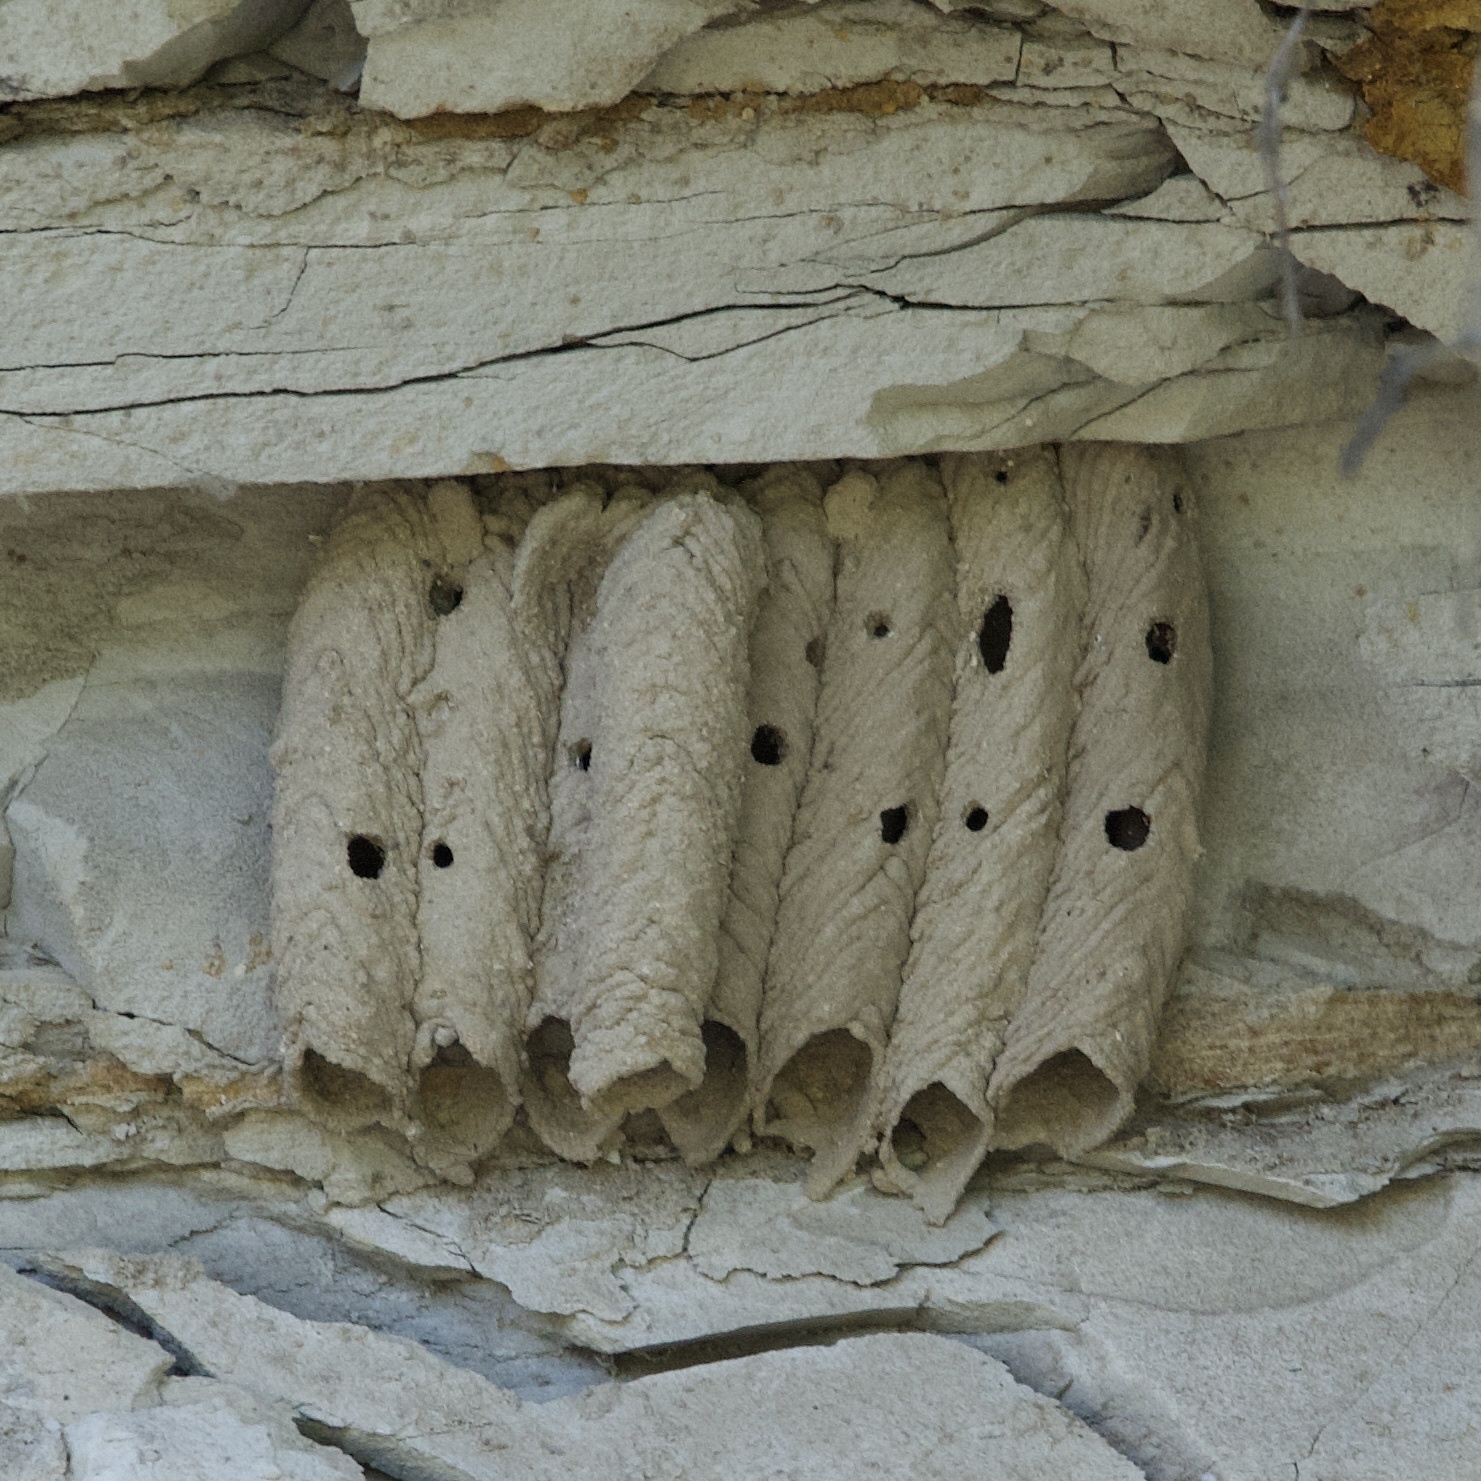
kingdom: Animalia
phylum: Arthropoda
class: Insecta
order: Hymenoptera
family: Crabronidae
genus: Trypoxylon
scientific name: Trypoxylon politum
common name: Organ-pipe mud-dauber wasp
